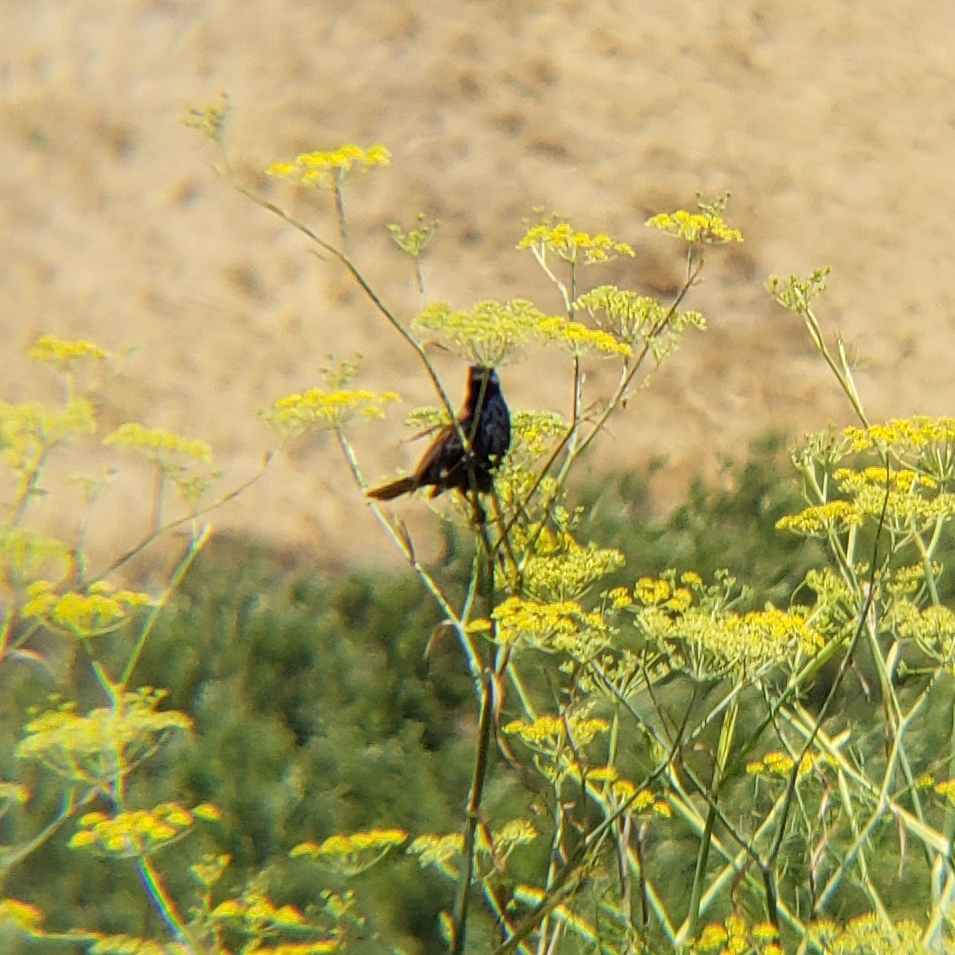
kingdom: Animalia
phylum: Chordata
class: Aves
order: Passeriformes
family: Cardinalidae
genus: Passerina
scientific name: Passerina caerulea
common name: Blue grosbeak
